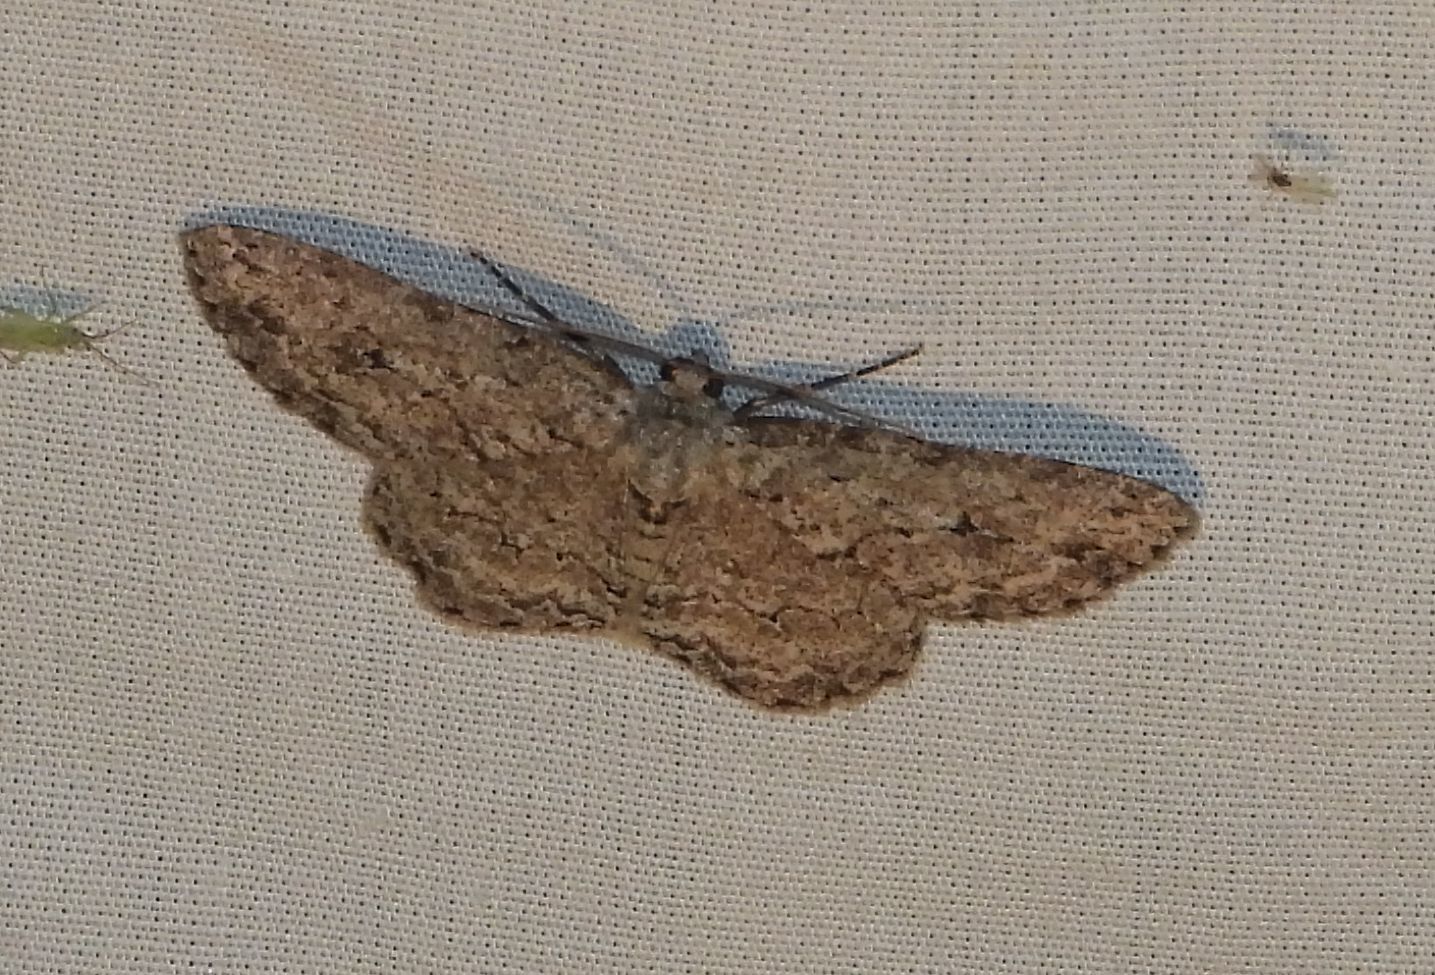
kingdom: Animalia
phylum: Arthropoda
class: Insecta
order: Lepidoptera
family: Geometridae
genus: Ectropis
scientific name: Ectropis crepuscularia
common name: Engrailed
